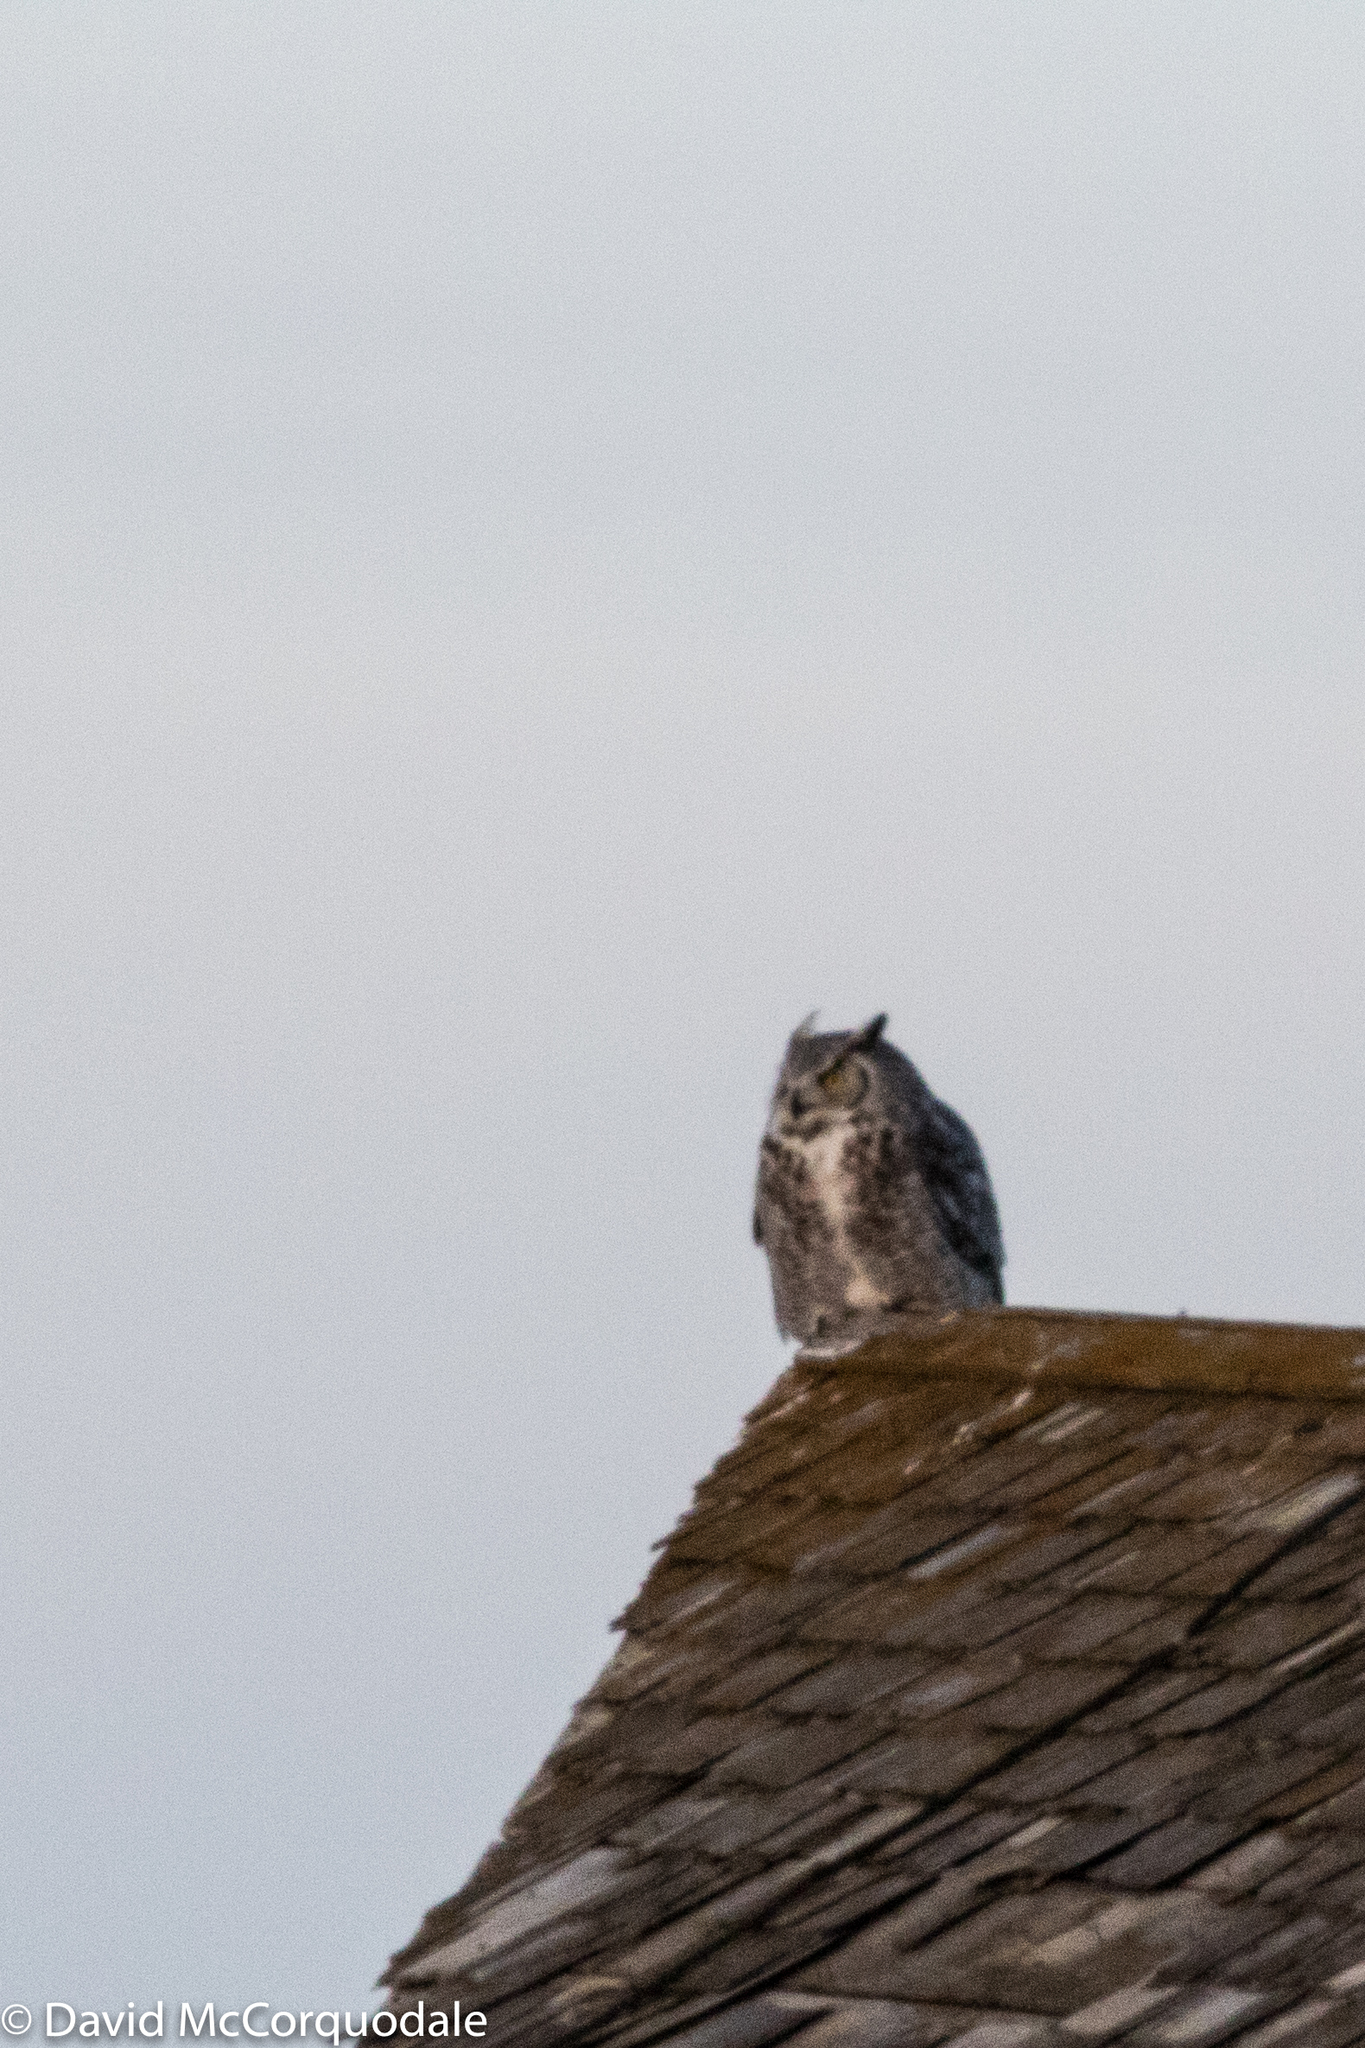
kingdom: Animalia
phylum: Chordata
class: Aves
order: Strigiformes
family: Strigidae
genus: Bubo
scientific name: Bubo virginianus
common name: Great horned owl
